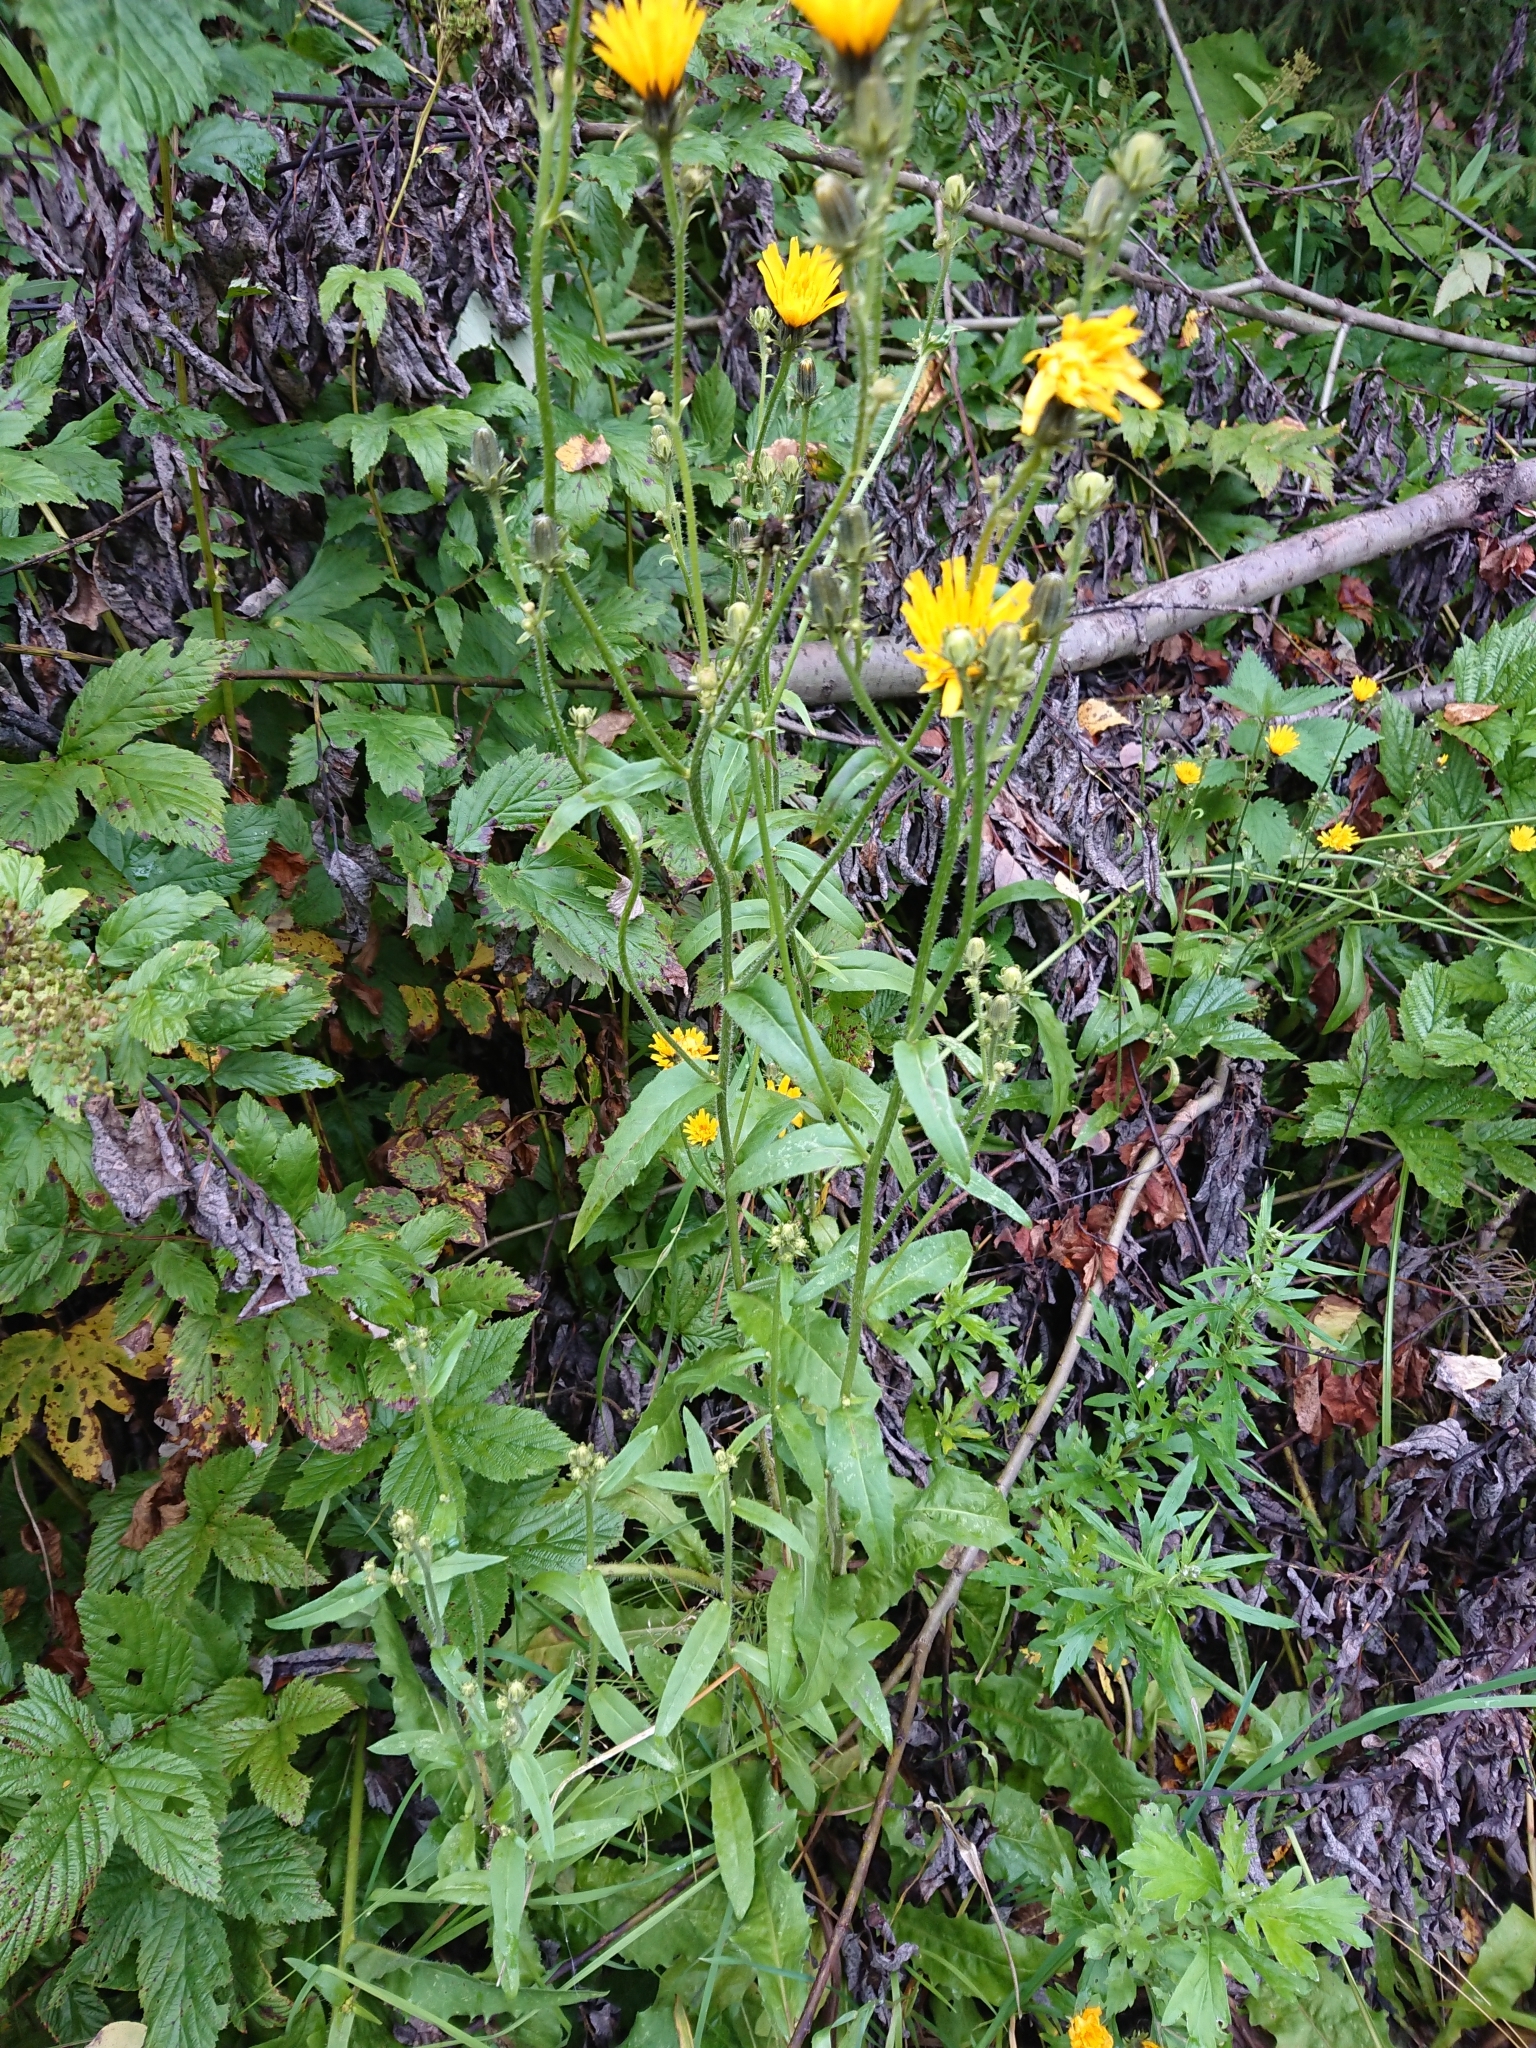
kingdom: Plantae
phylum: Tracheophyta
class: Magnoliopsida
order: Asterales
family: Asteraceae
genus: Picris
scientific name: Picris hieracioides
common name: Hawkweed oxtongue
